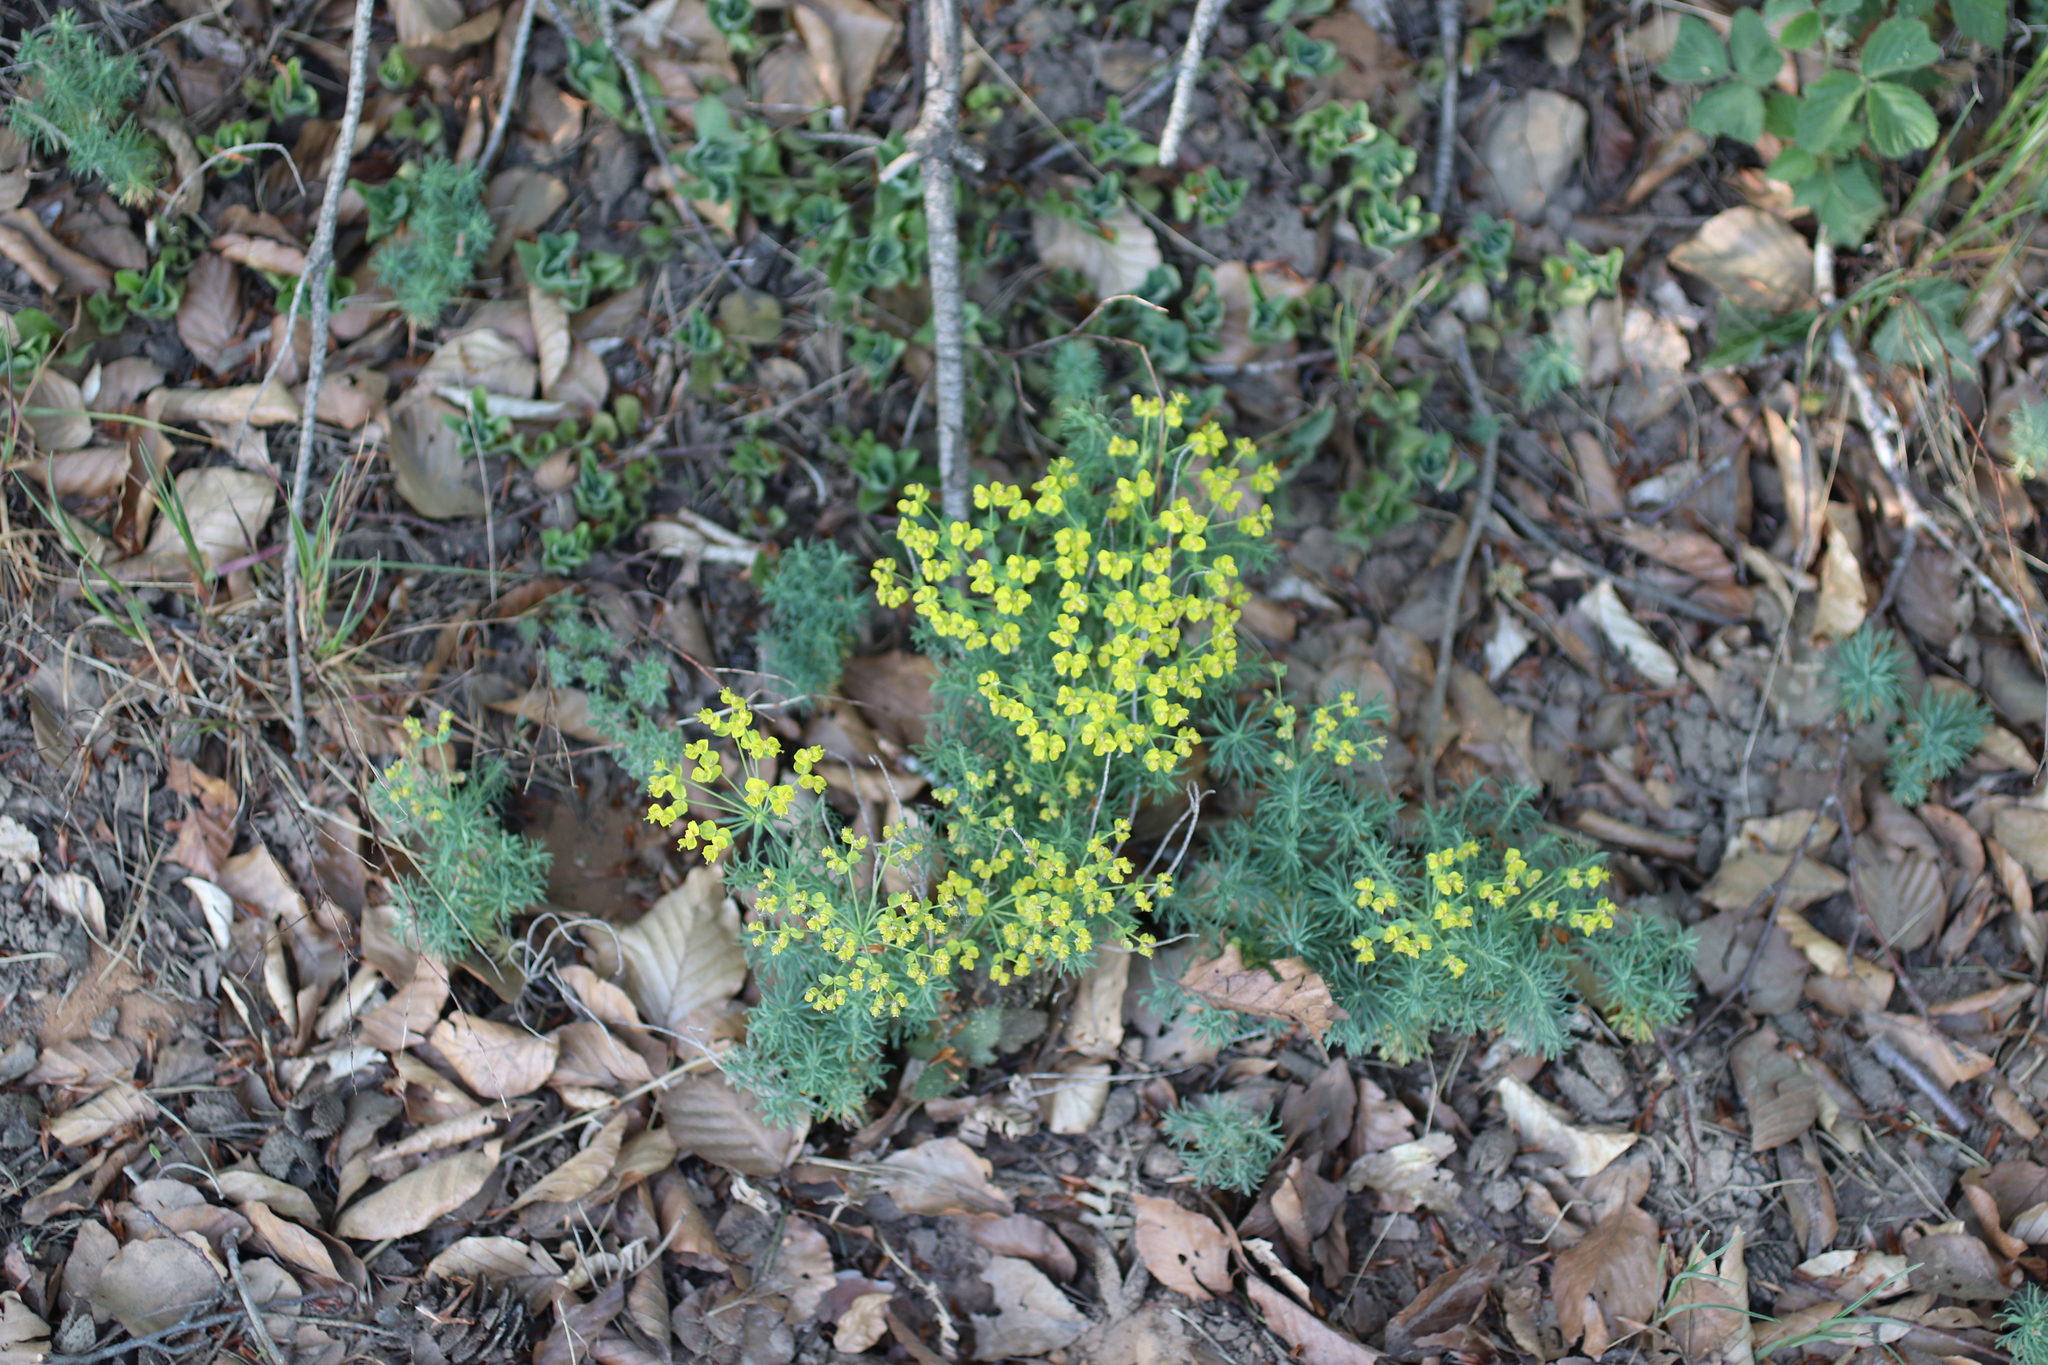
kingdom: Plantae
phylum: Tracheophyta
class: Magnoliopsida
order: Malpighiales
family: Euphorbiaceae
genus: Euphorbia
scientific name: Euphorbia cyparissias
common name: Cypress spurge
